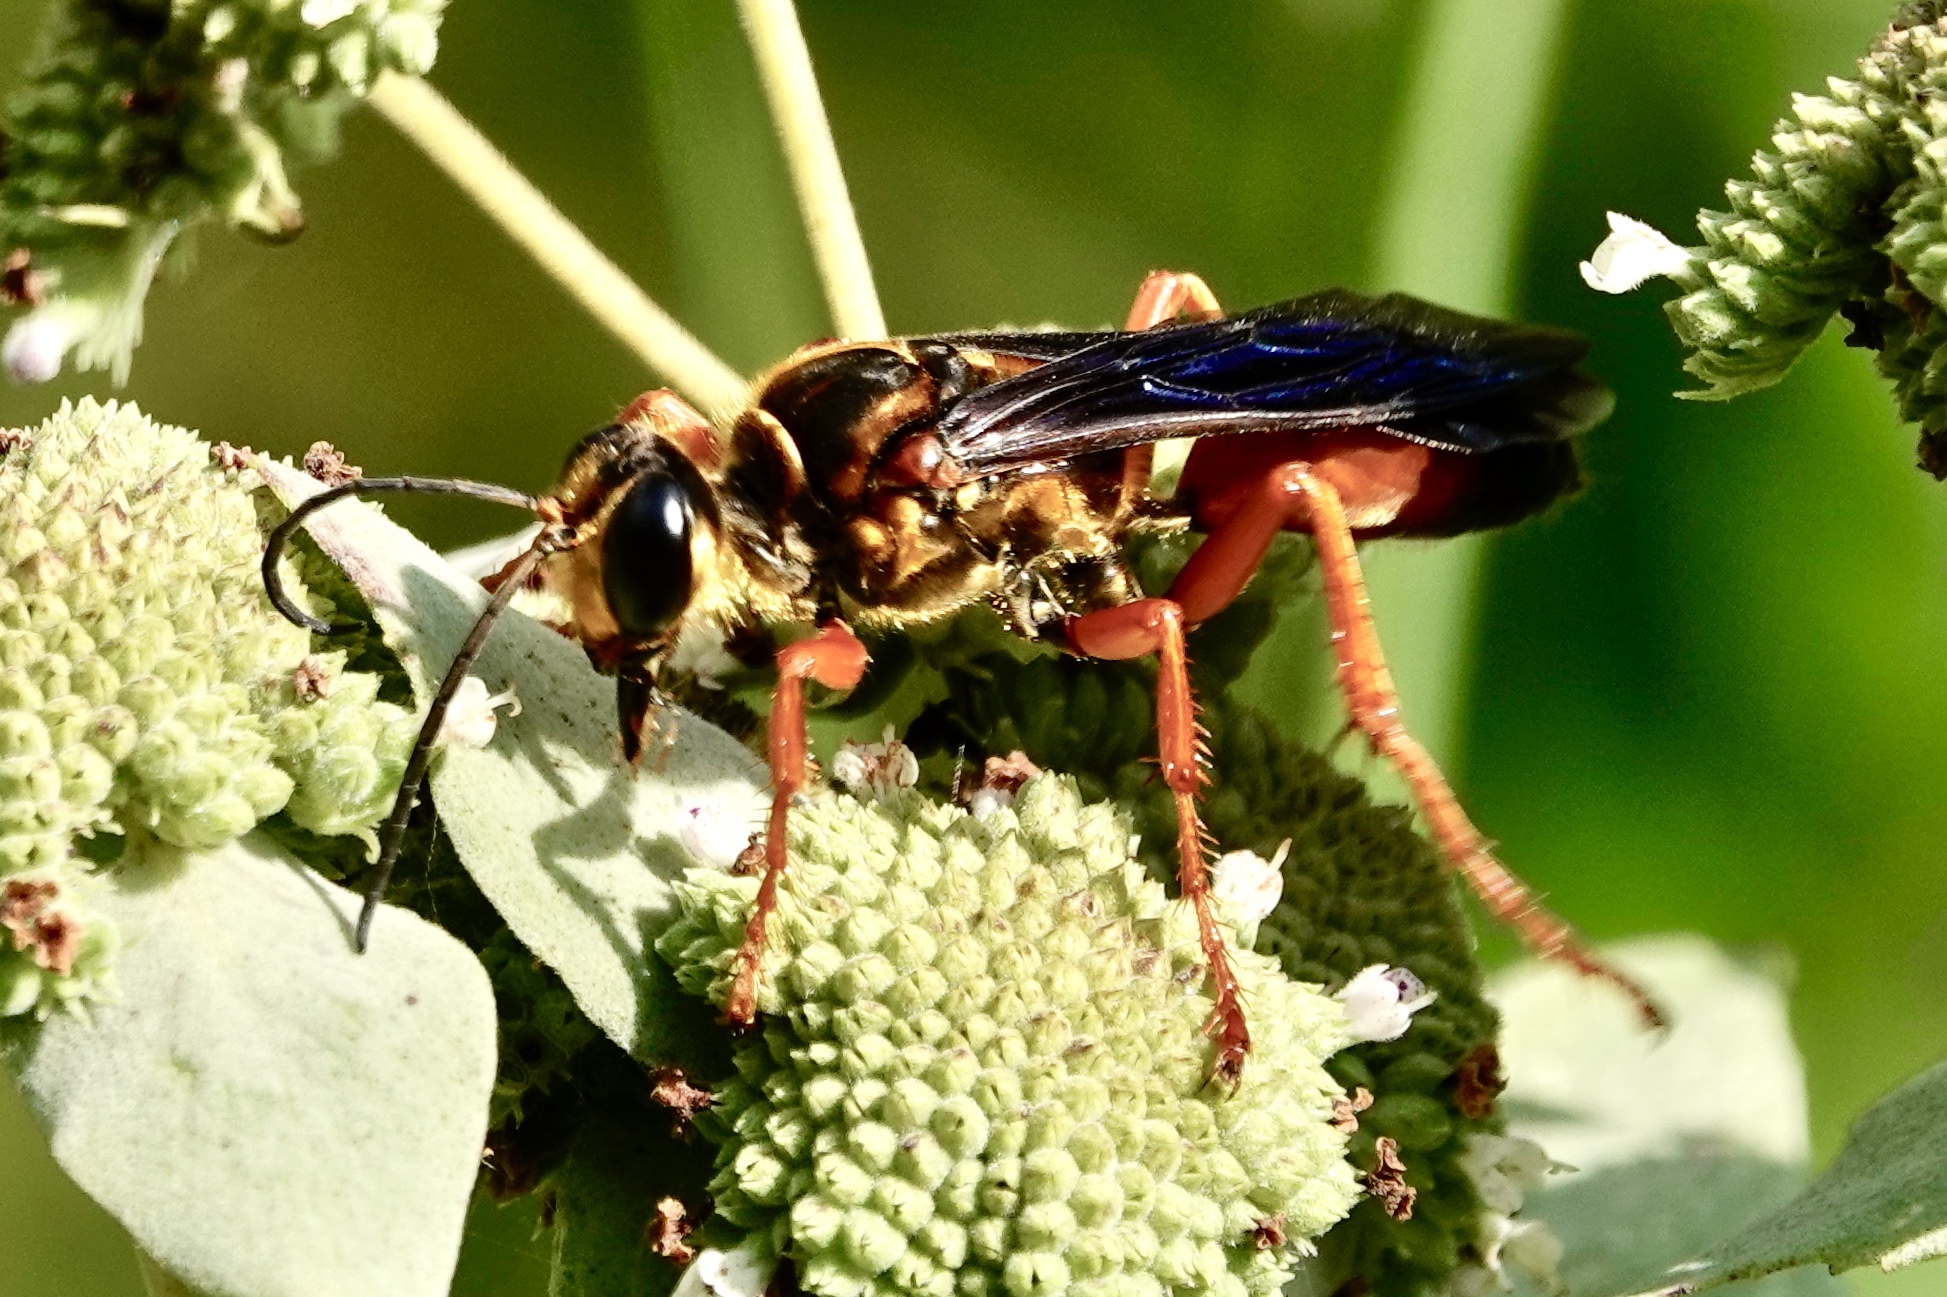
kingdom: Animalia
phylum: Arthropoda
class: Insecta
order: Hymenoptera
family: Sphecidae
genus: Sphex
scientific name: Sphex ichneumoneus
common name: Great golden digger wasp
